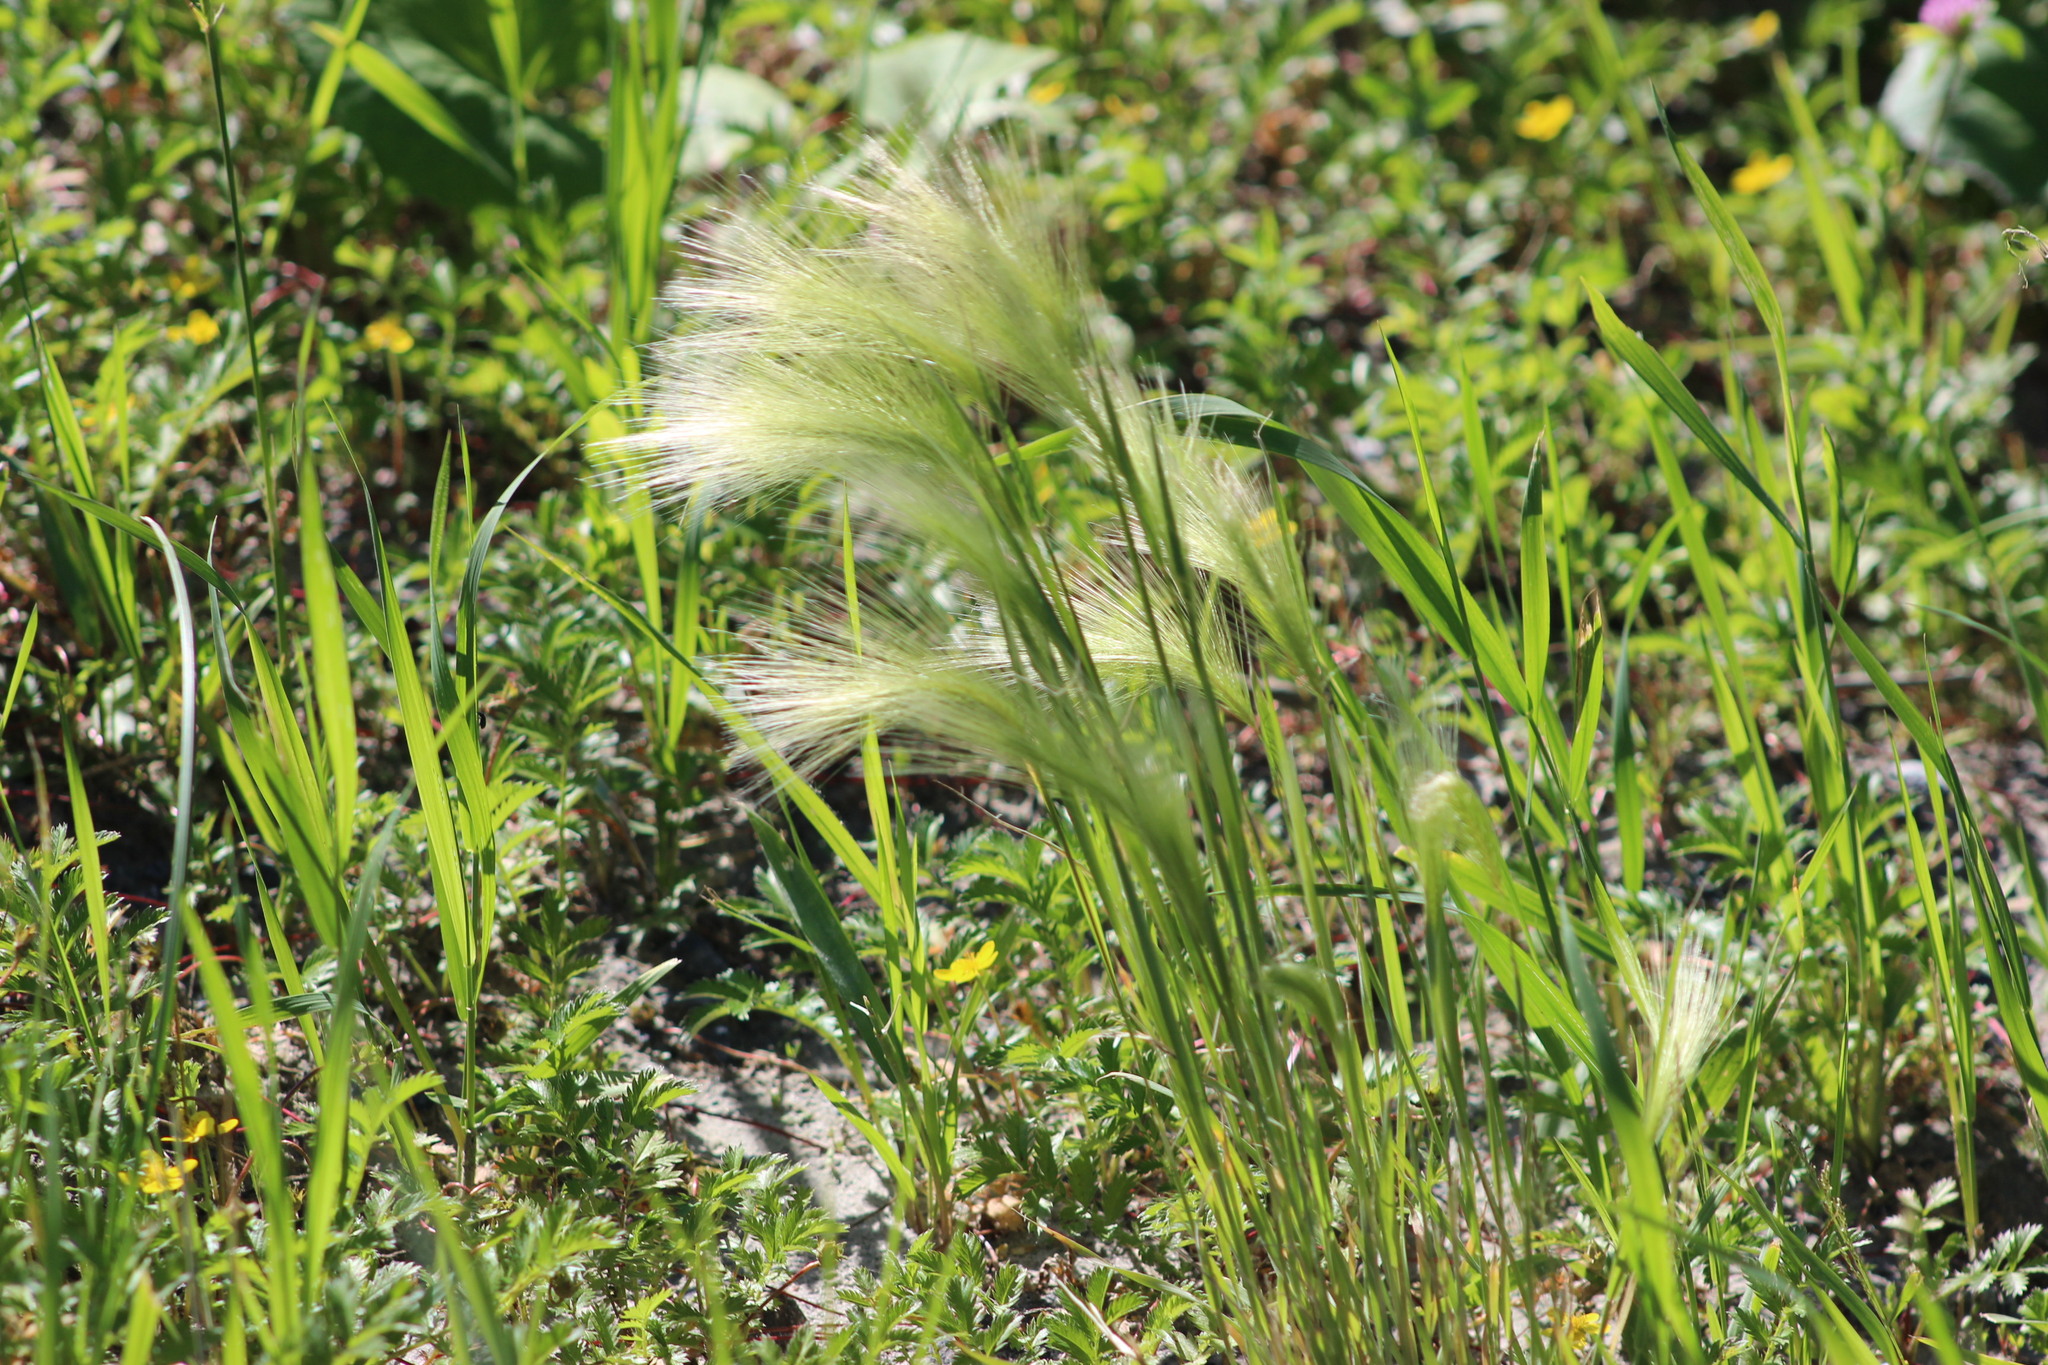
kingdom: Plantae
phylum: Tracheophyta
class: Liliopsida
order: Poales
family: Poaceae
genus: Hordeum
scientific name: Hordeum jubatum
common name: Foxtail barley
